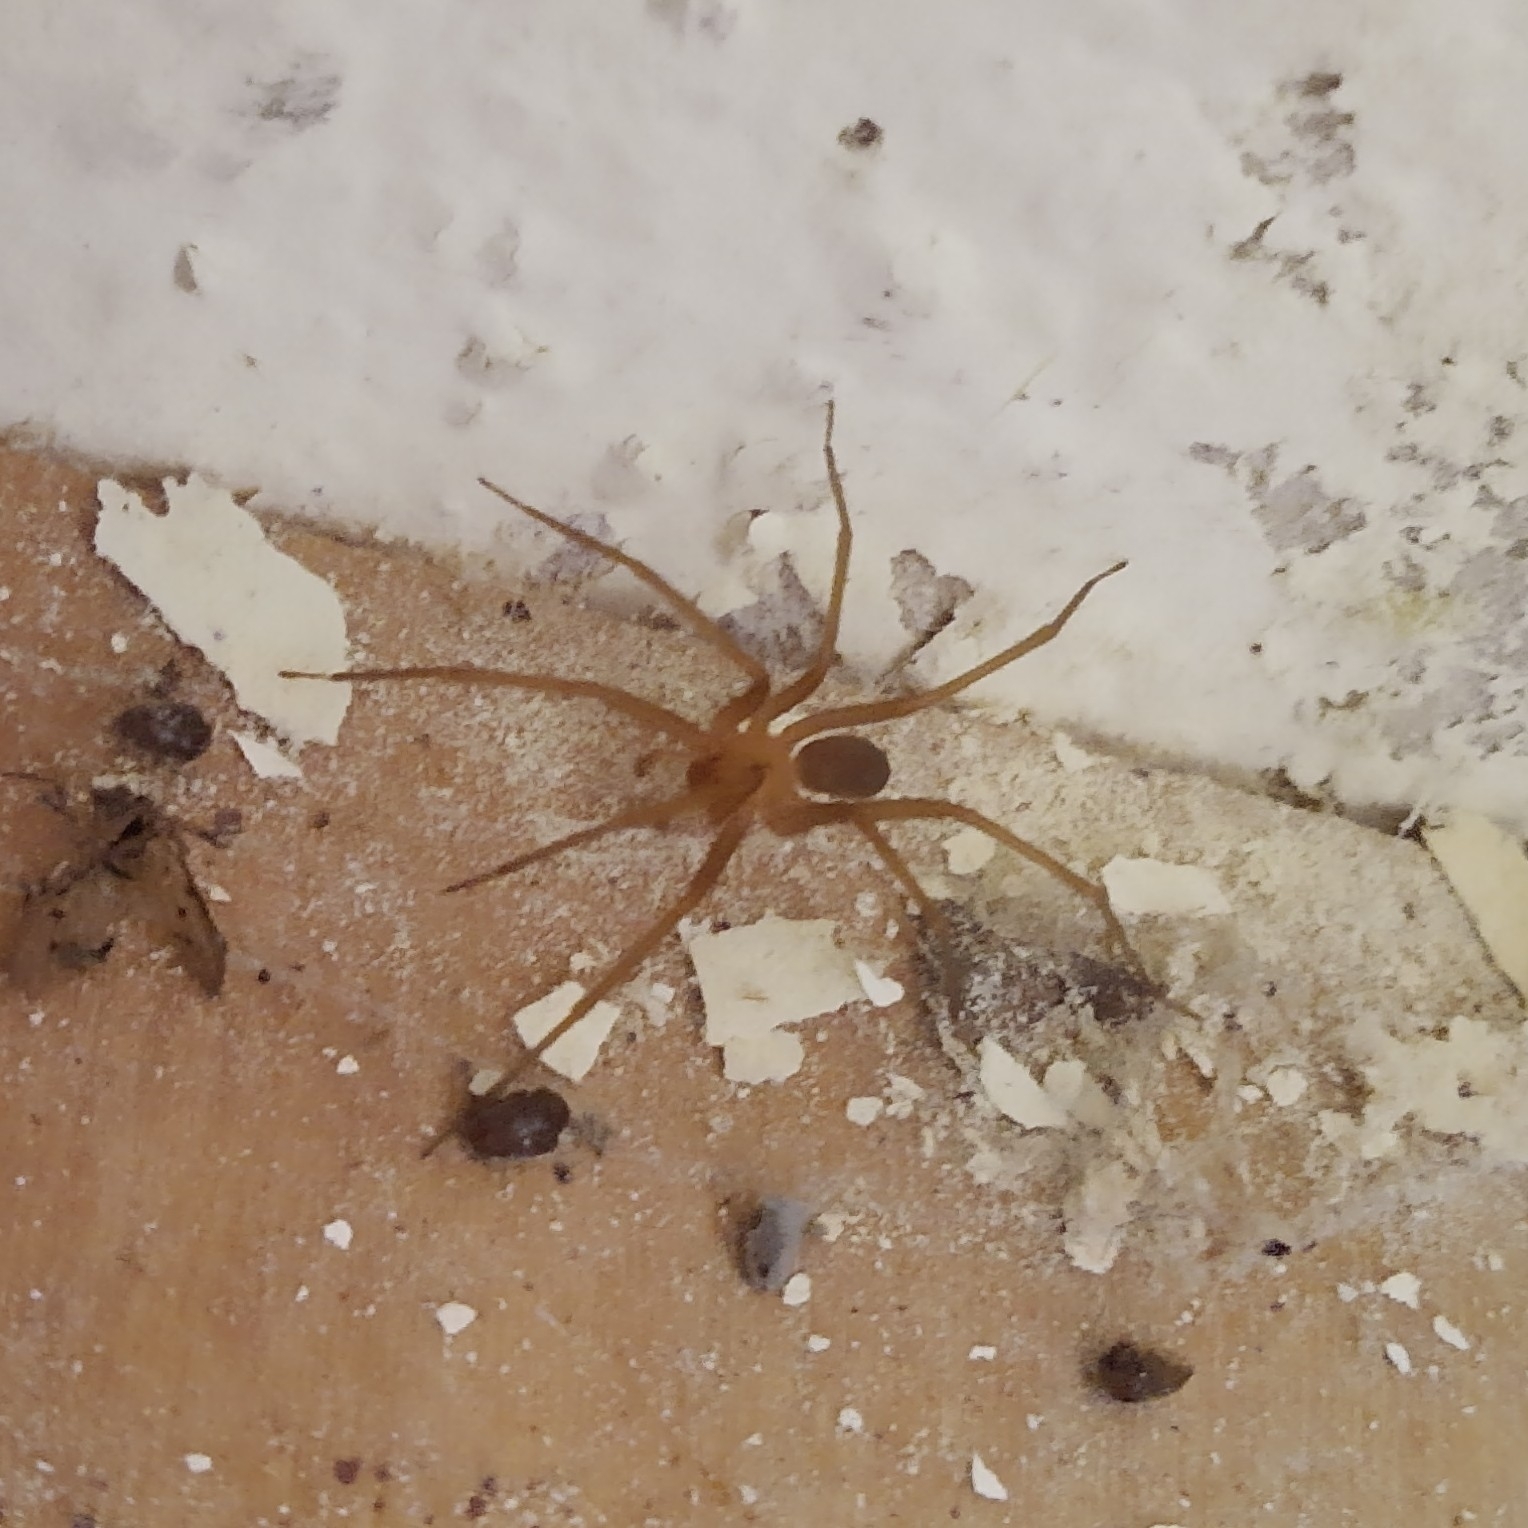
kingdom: Animalia
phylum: Arthropoda
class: Arachnida
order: Araneae
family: Sicariidae
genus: Loxosceles
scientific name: Loxosceles laeta
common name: Chilean recluse spider
